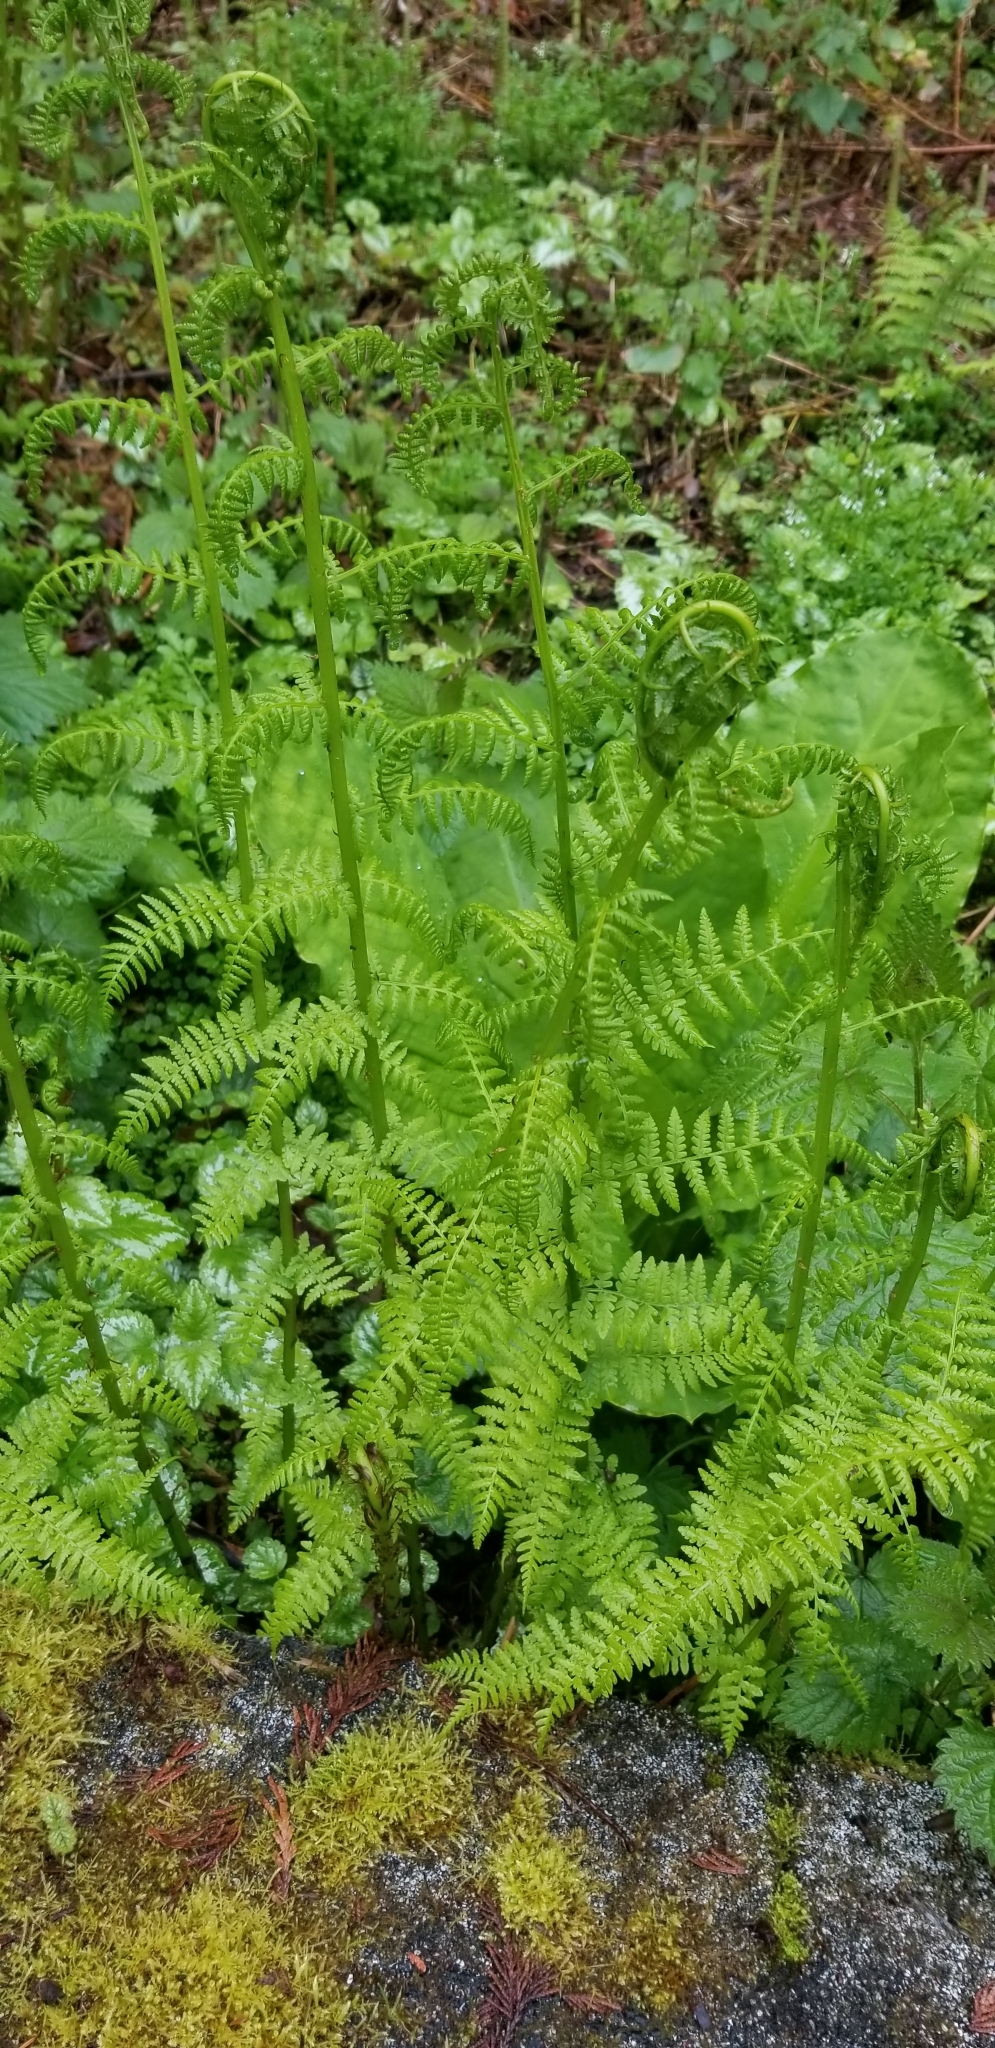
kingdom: Plantae
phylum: Tracheophyta
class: Polypodiopsida
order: Polypodiales
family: Athyriaceae
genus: Athyrium
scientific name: Athyrium filix-femina
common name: Lady fern
